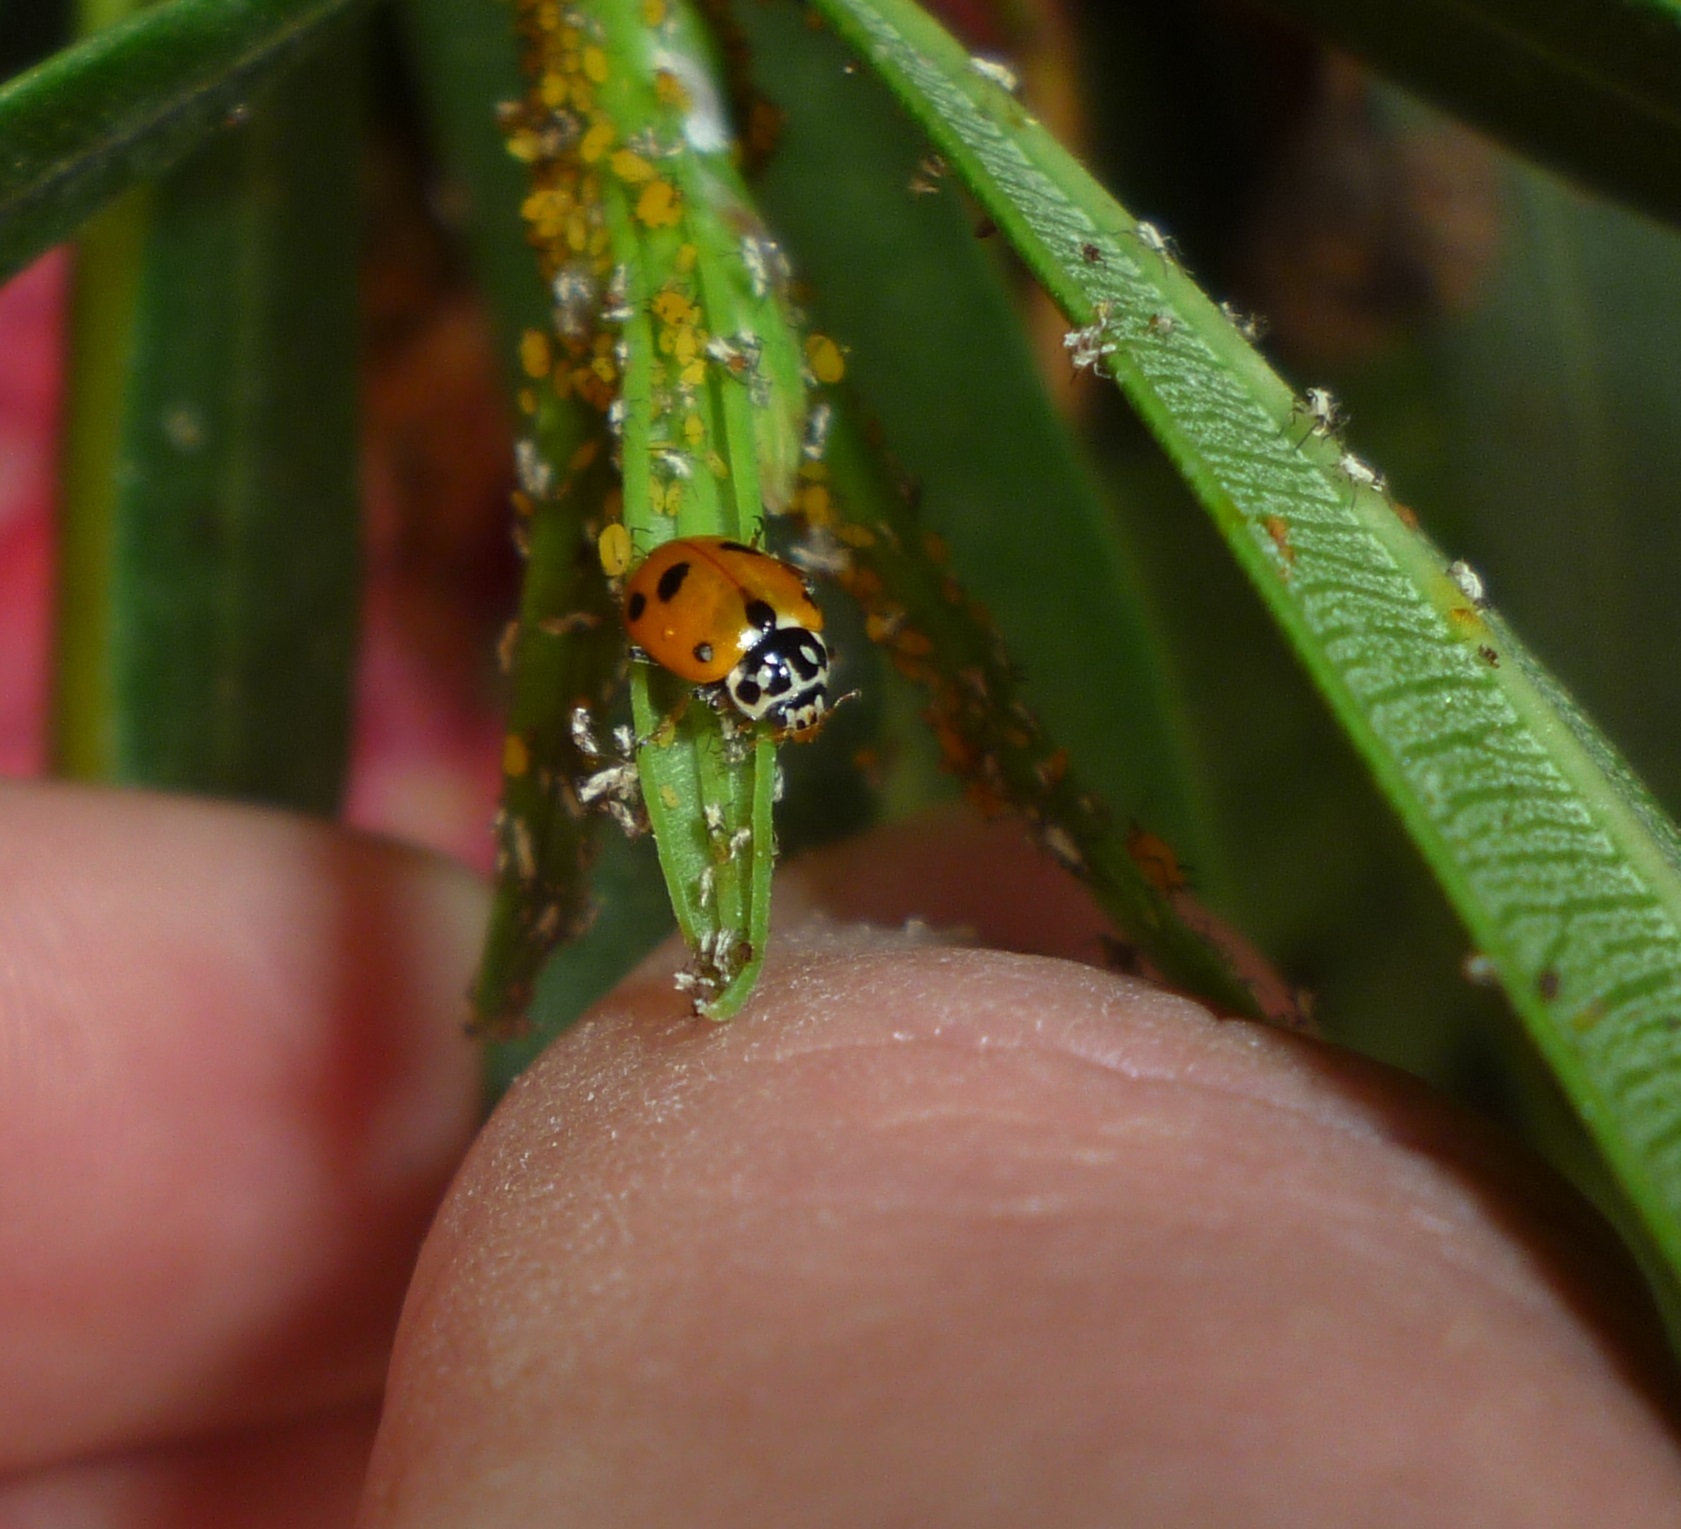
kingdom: Animalia
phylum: Arthropoda
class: Insecta
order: Coleoptera
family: Coccinellidae
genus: Hippodamia
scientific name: Hippodamia variegata
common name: Ladybird beetle
